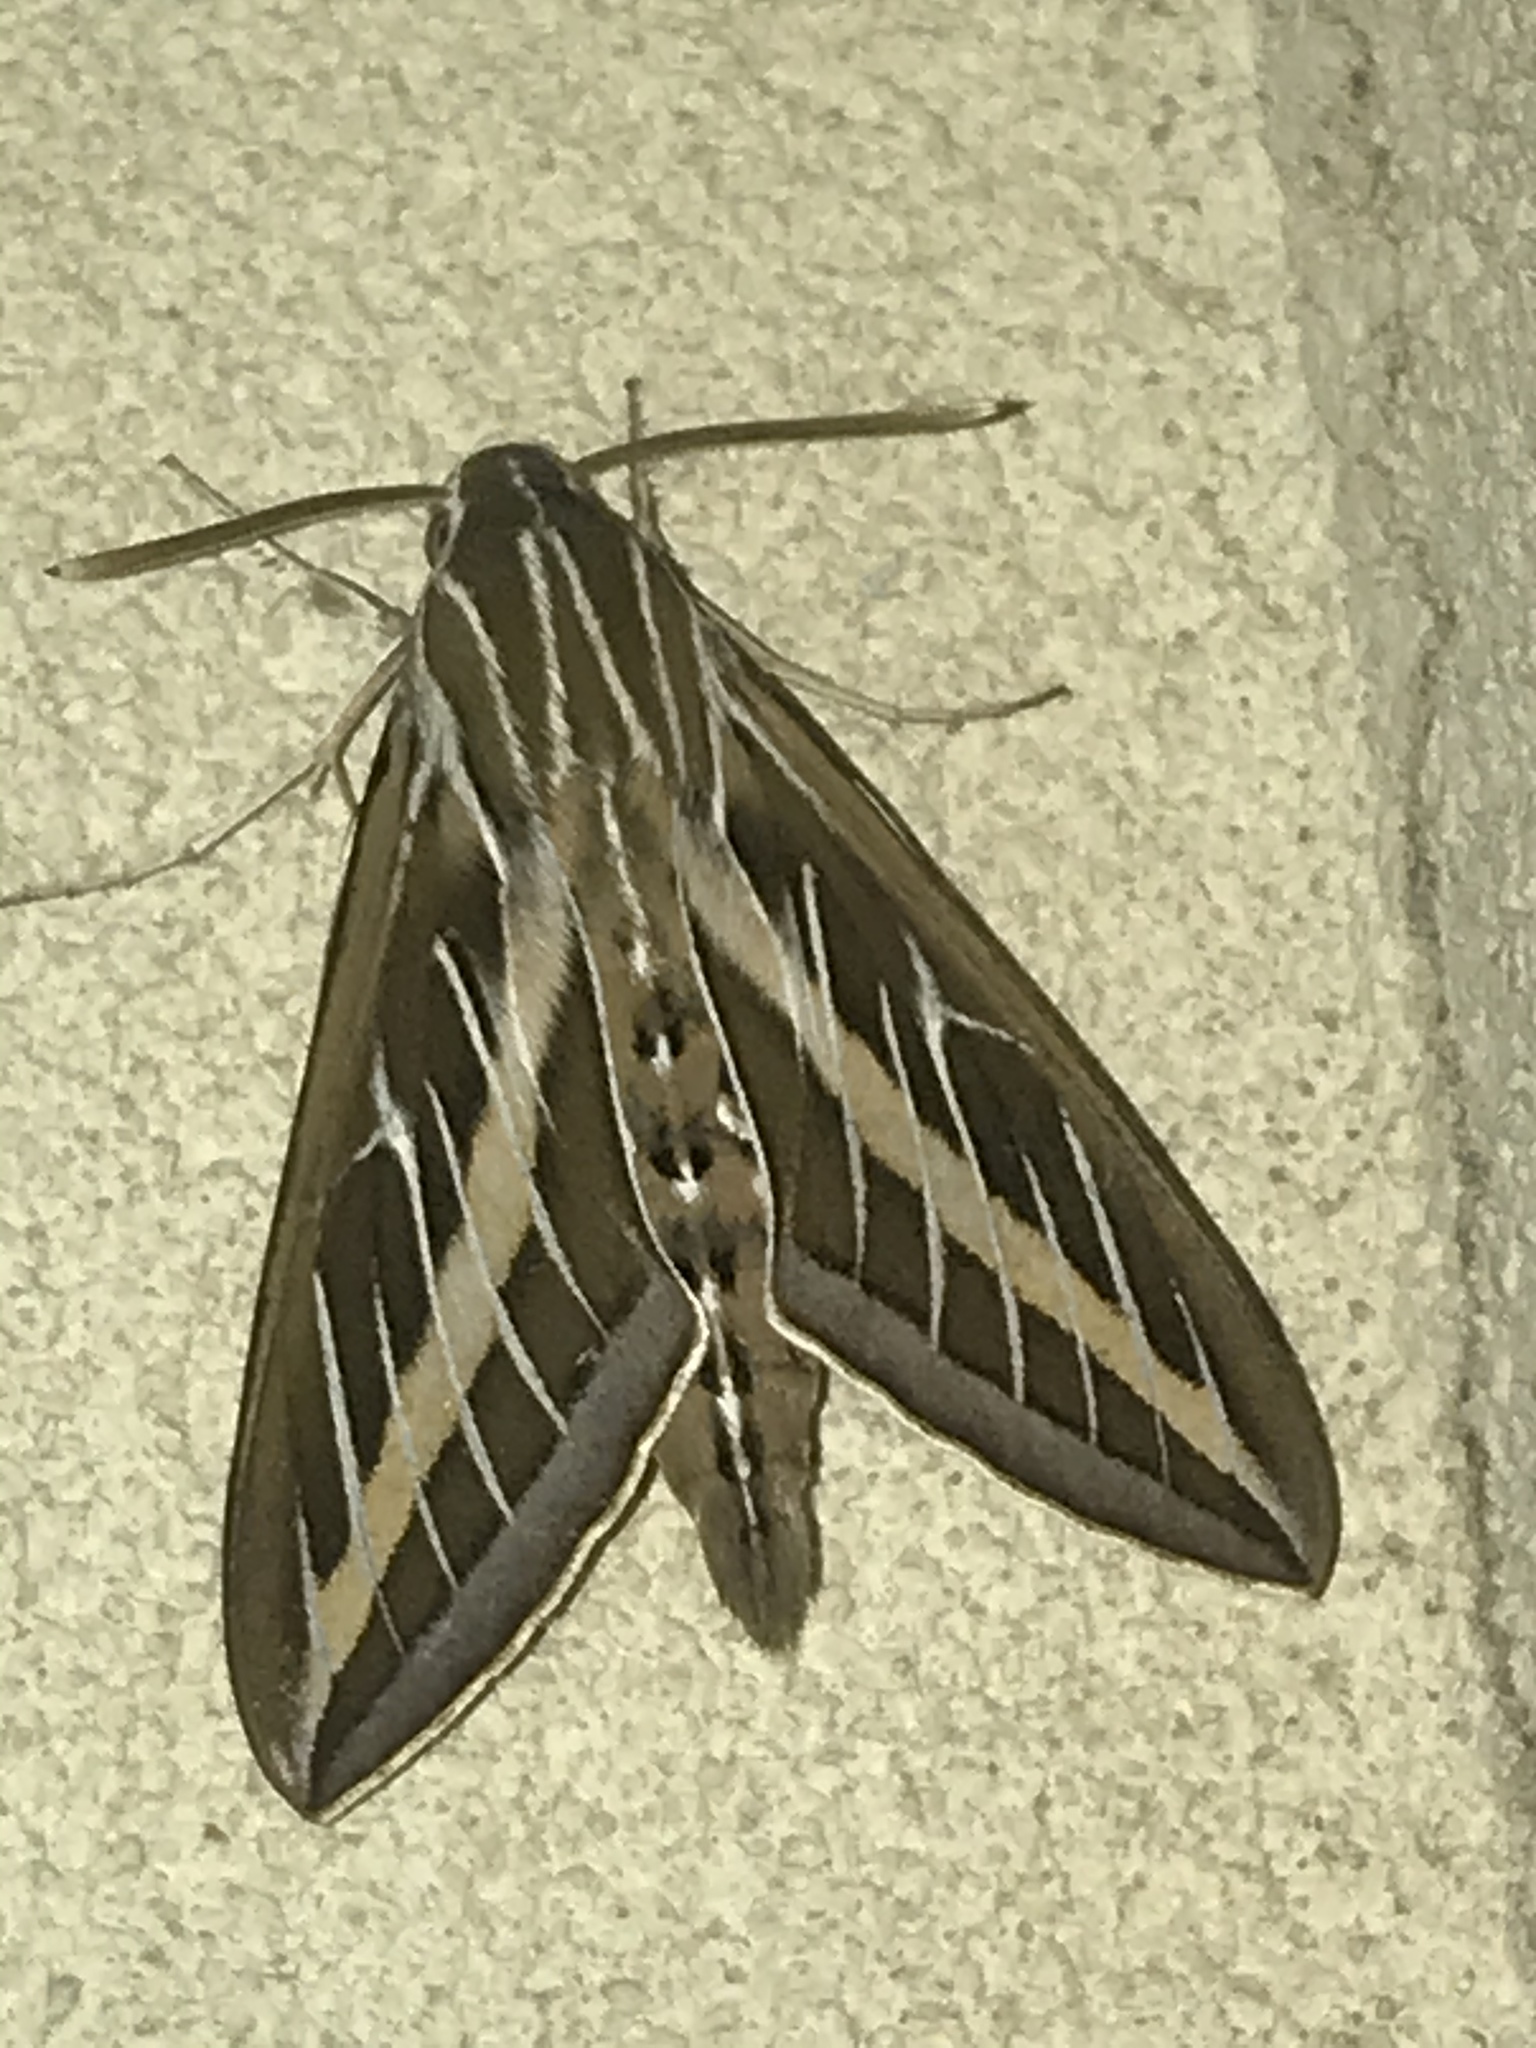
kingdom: Animalia
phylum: Arthropoda
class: Insecta
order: Lepidoptera
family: Sphingidae
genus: Hyles
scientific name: Hyles lineata
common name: White-lined sphinx
